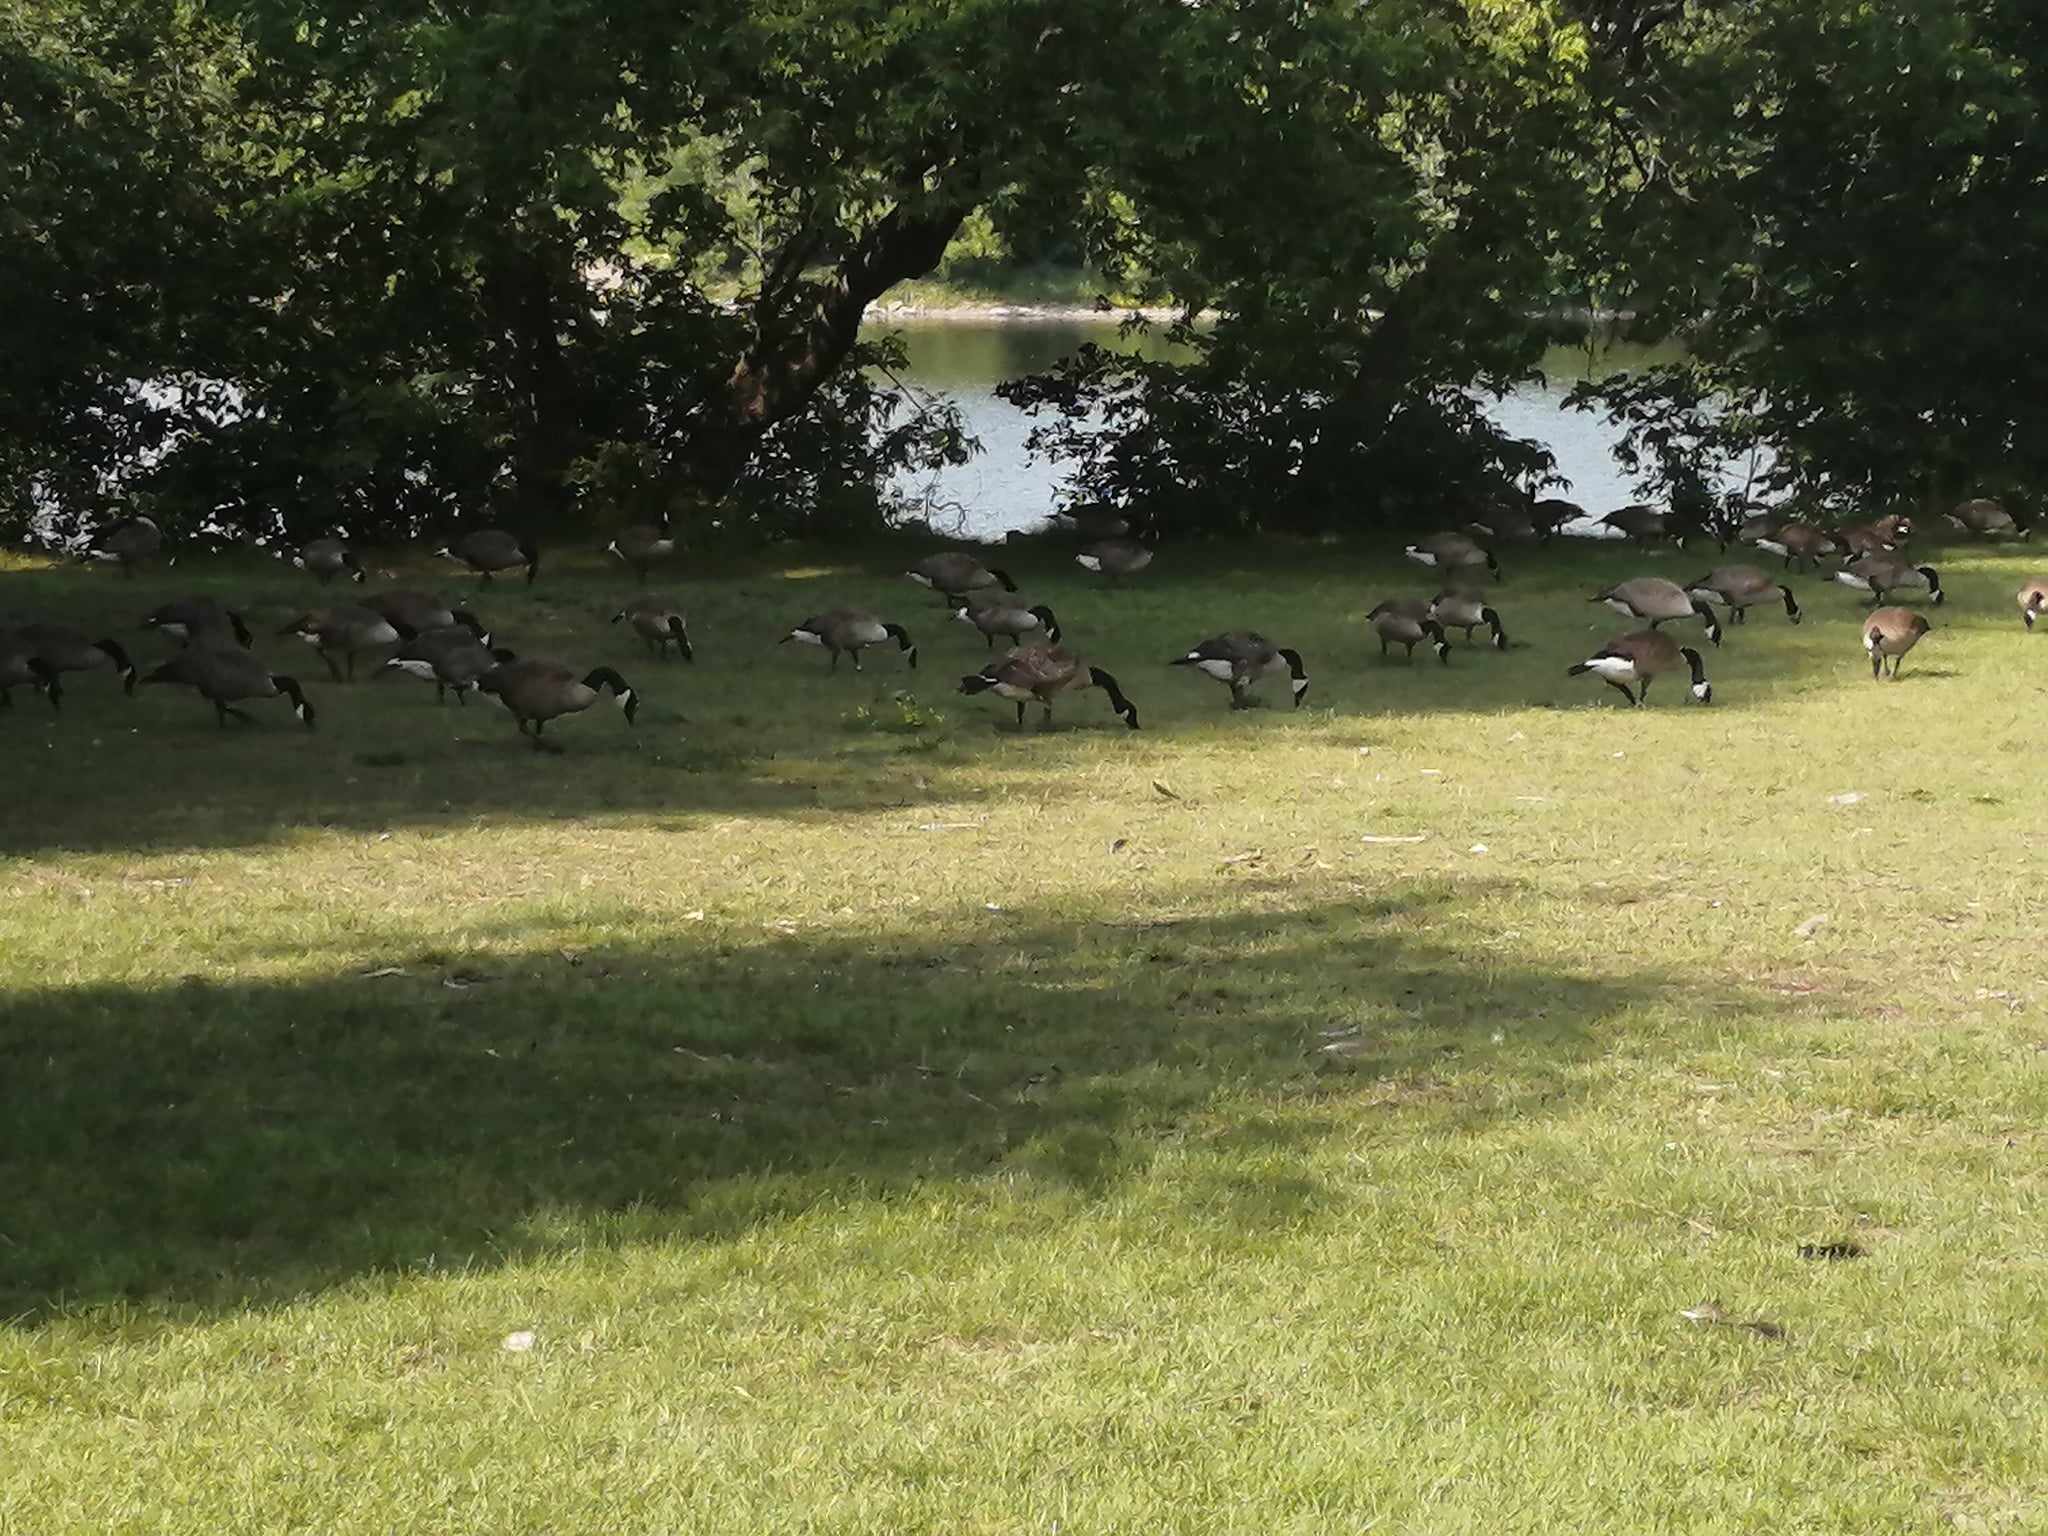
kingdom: Animalia
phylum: Chordata
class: Aves
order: Anseriformes
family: Anatidae
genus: Branta
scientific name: Branta canadensis
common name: Canada goose
